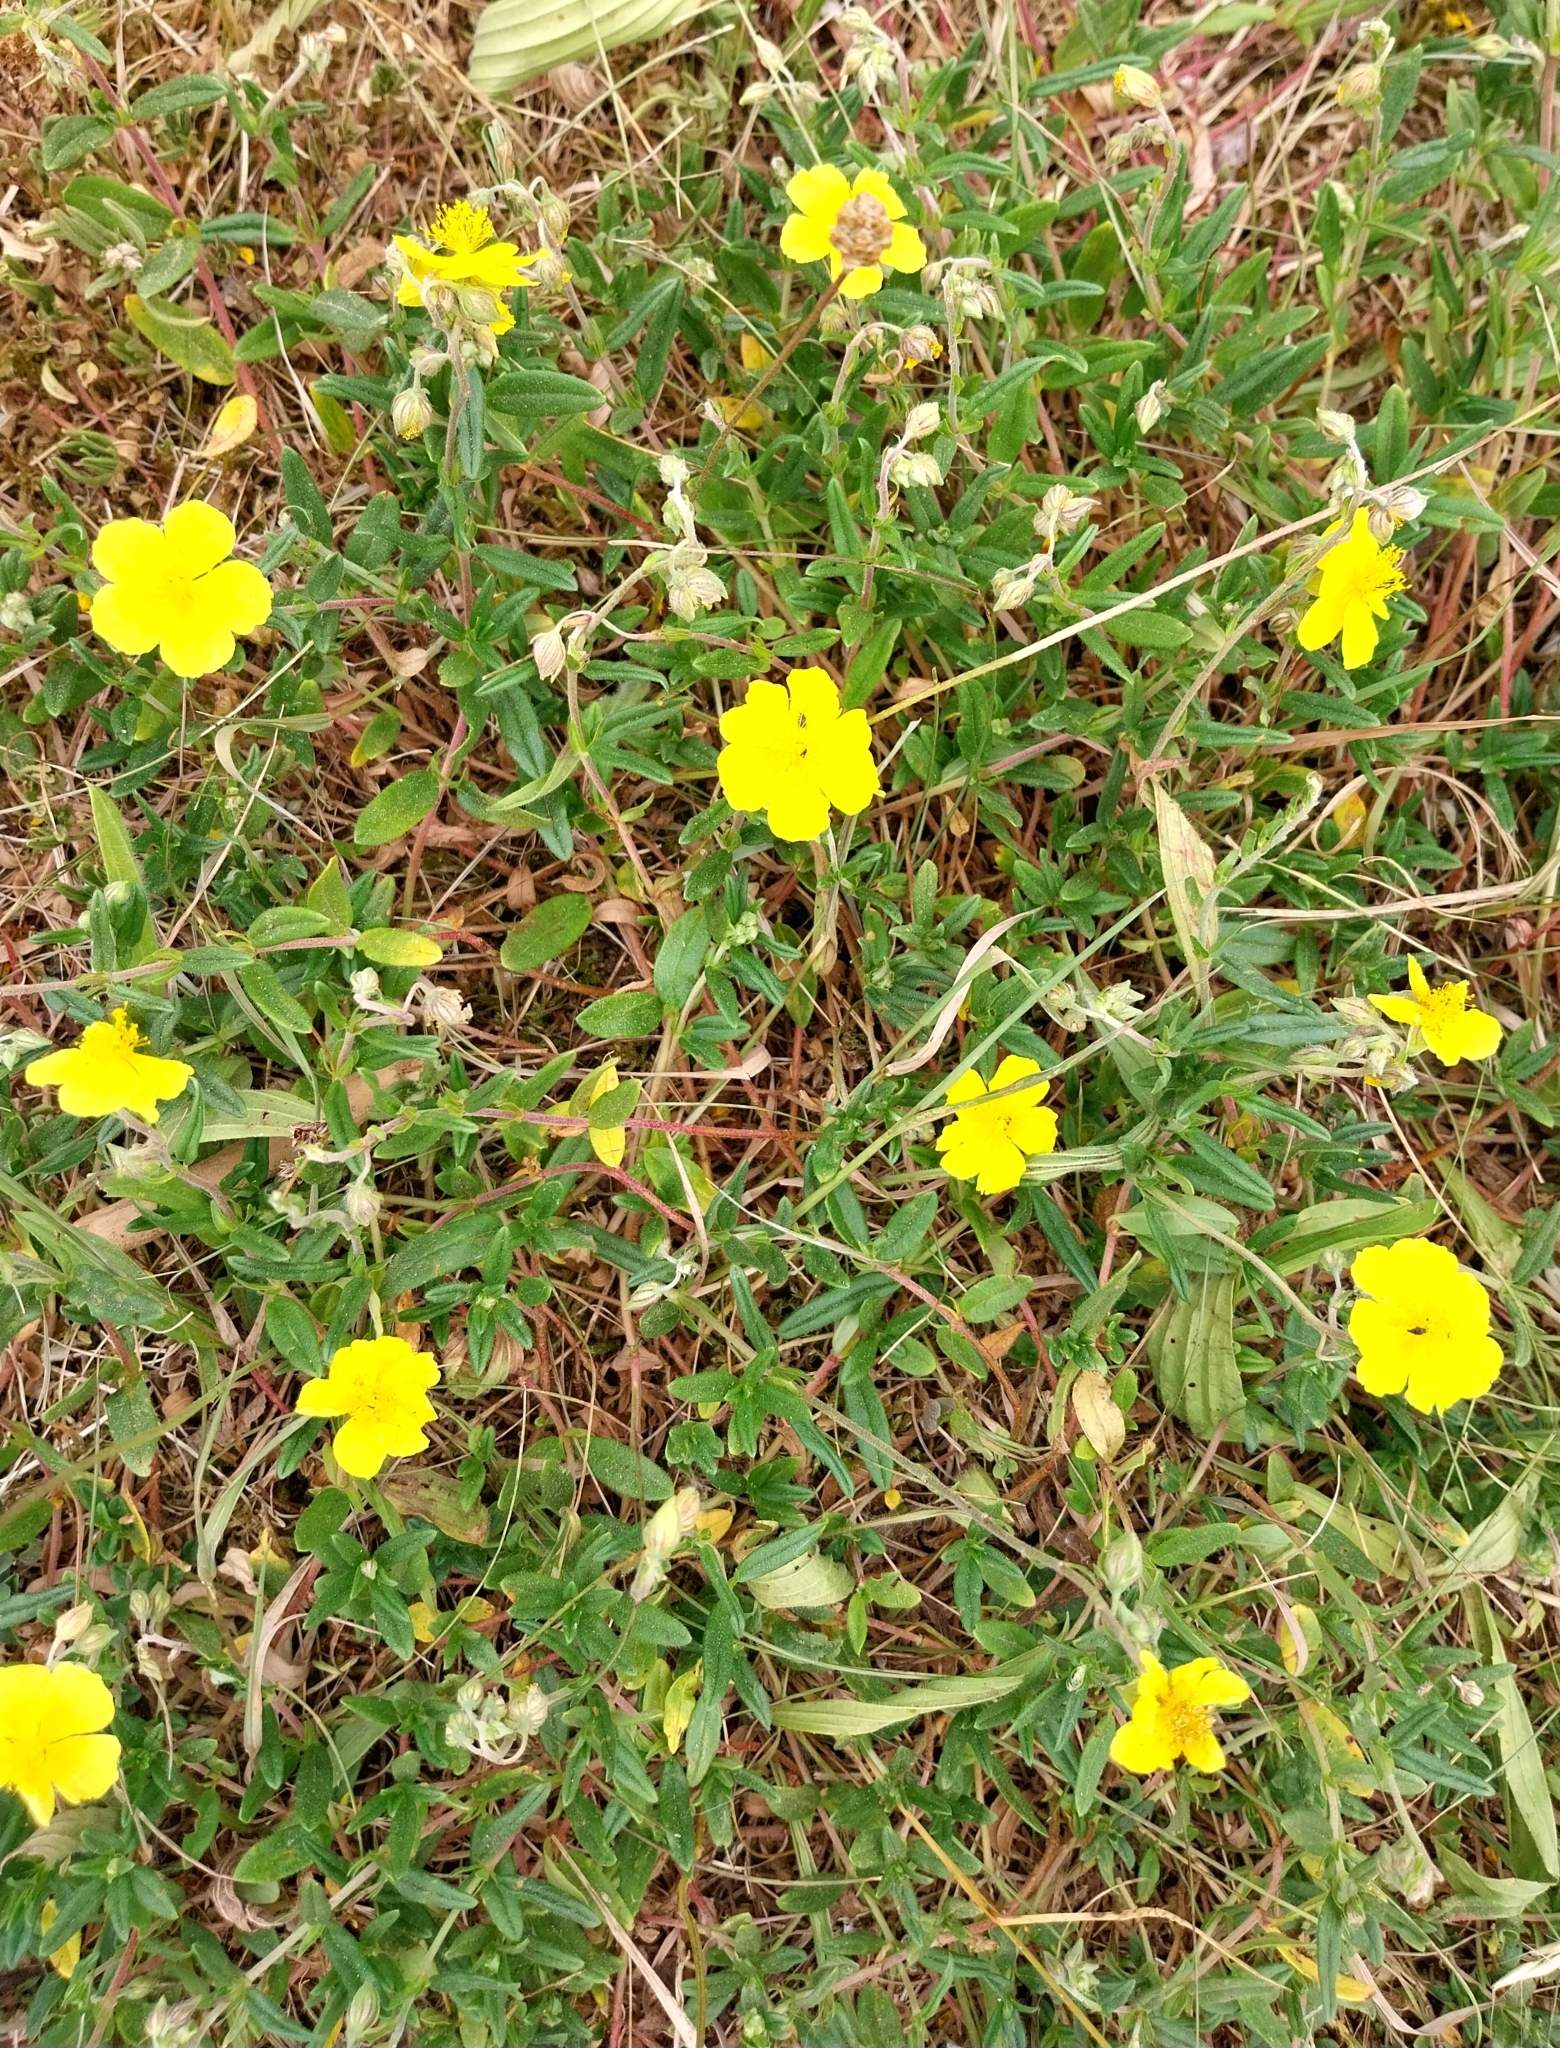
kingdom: Plantae
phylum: Tracheophyta
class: Magnoliopsida
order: Malvales
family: Cistaceae
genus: Helianthemum
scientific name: Helianthemum nummularium
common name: Common rock-rose
